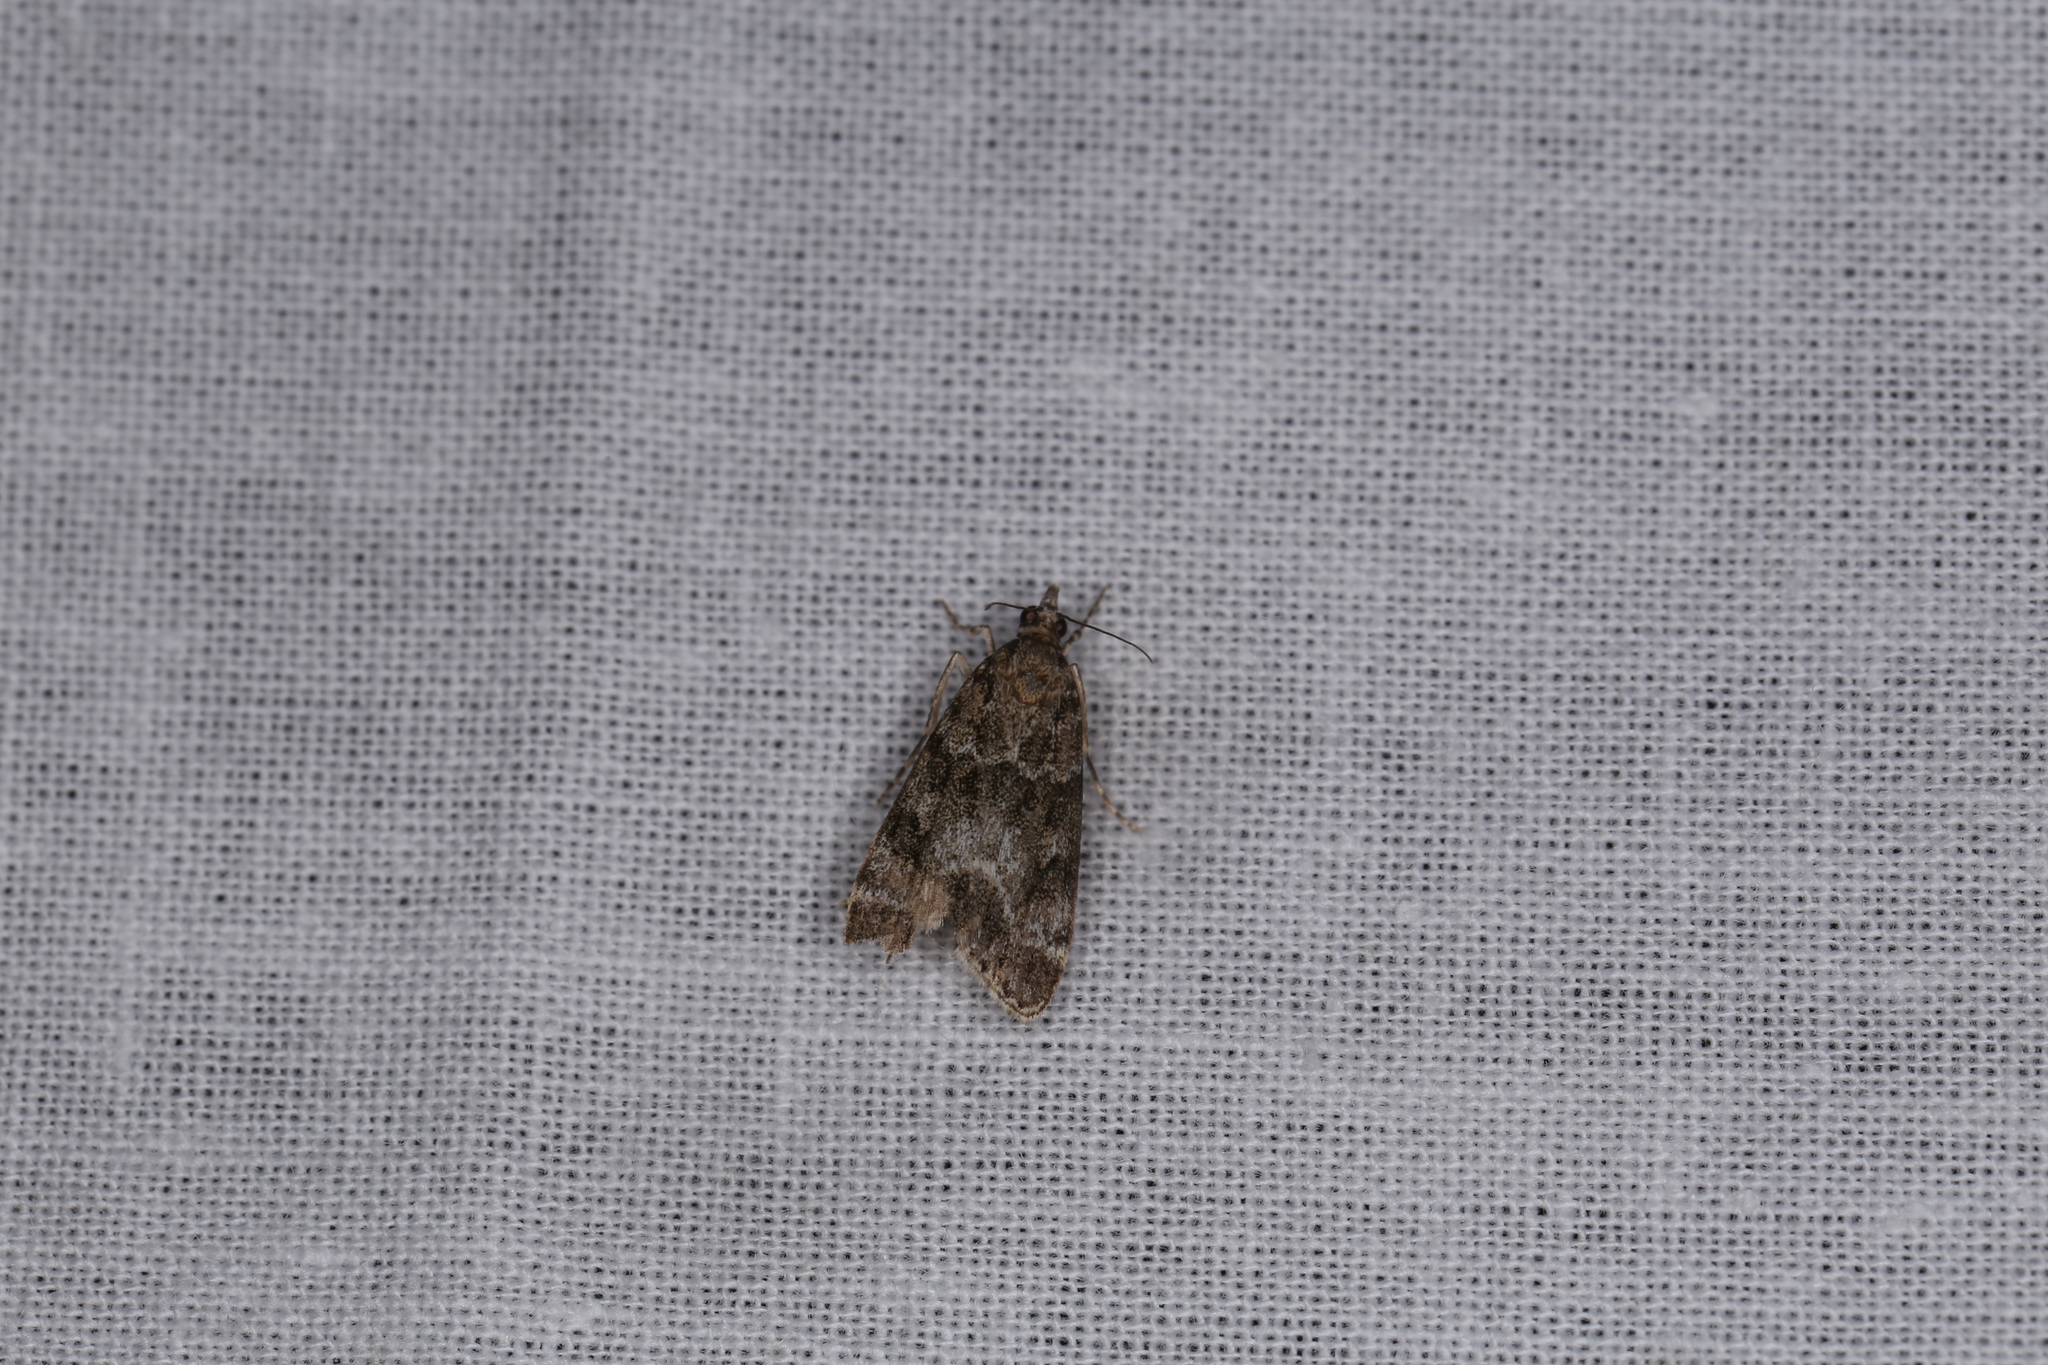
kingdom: Animalia
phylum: Arthropoda
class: Insecta
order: Lepidoptera
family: Crambidae
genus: Eudonia
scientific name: Eudonia mercurella
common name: Small grey
